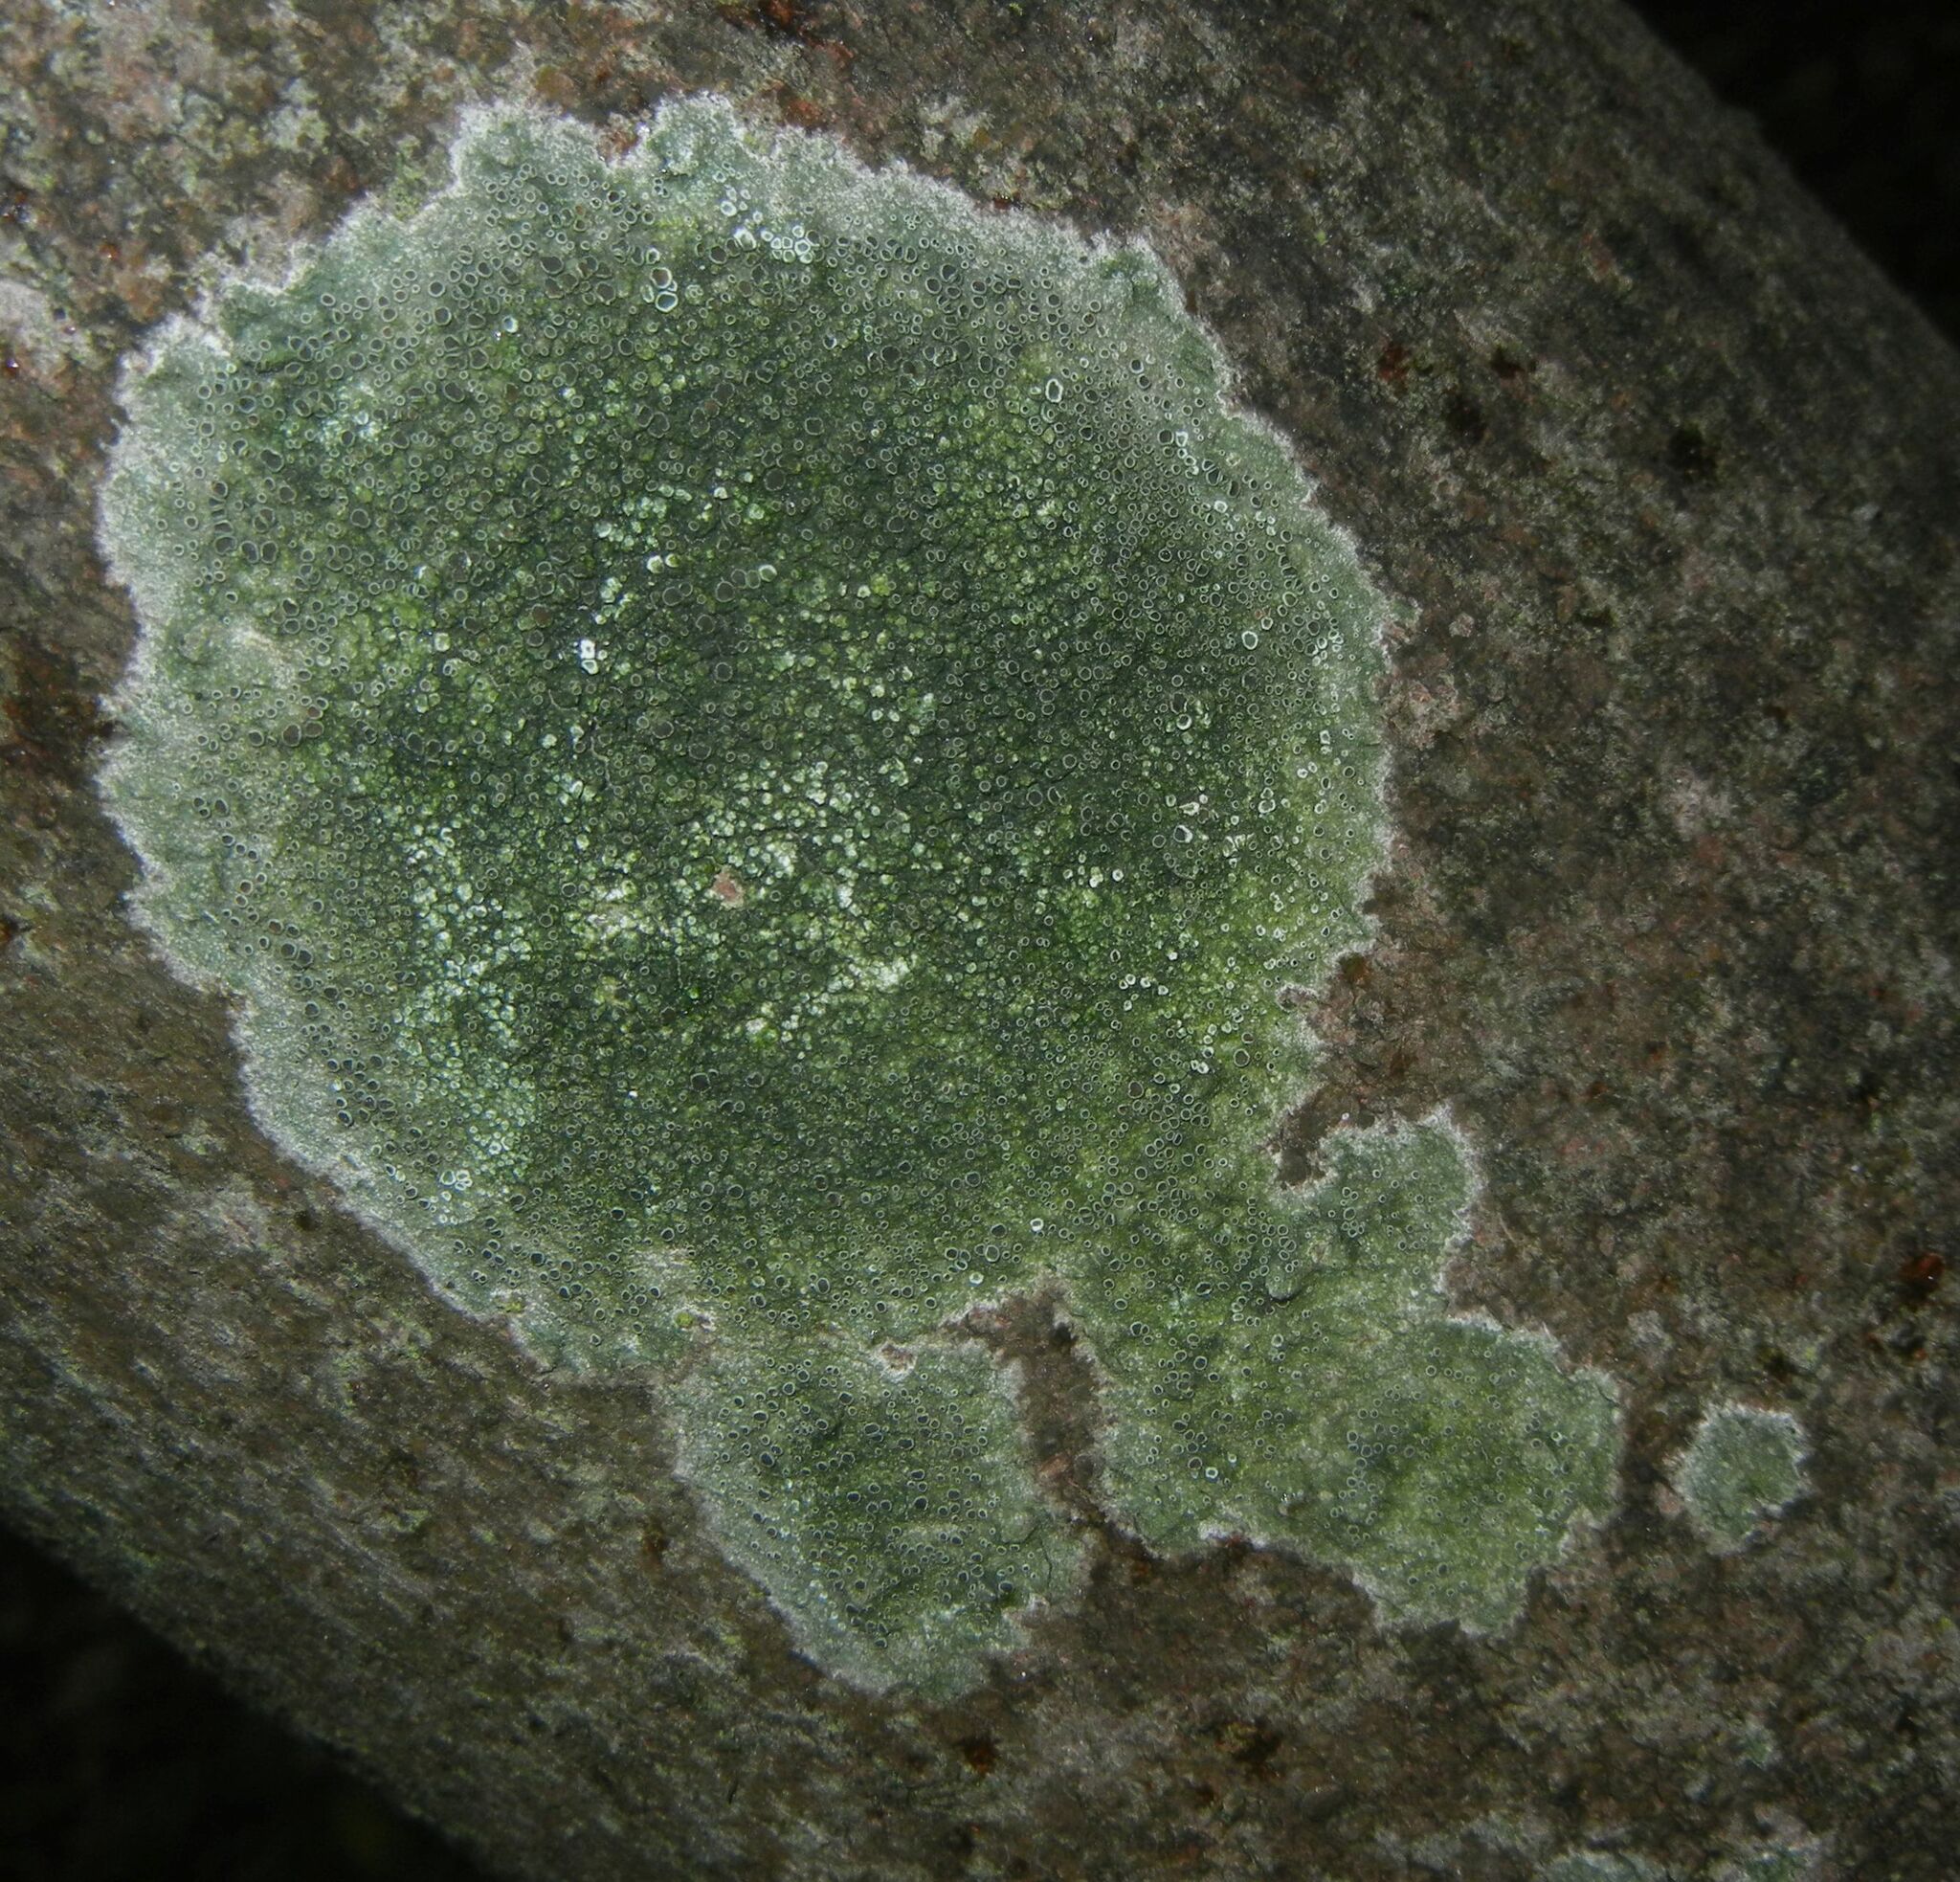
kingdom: Fungi
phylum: Ascomycota
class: Lecanoromycetes
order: Lecanorales
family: Lecanoraceae
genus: Lecanora
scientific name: Lecanora campestris
